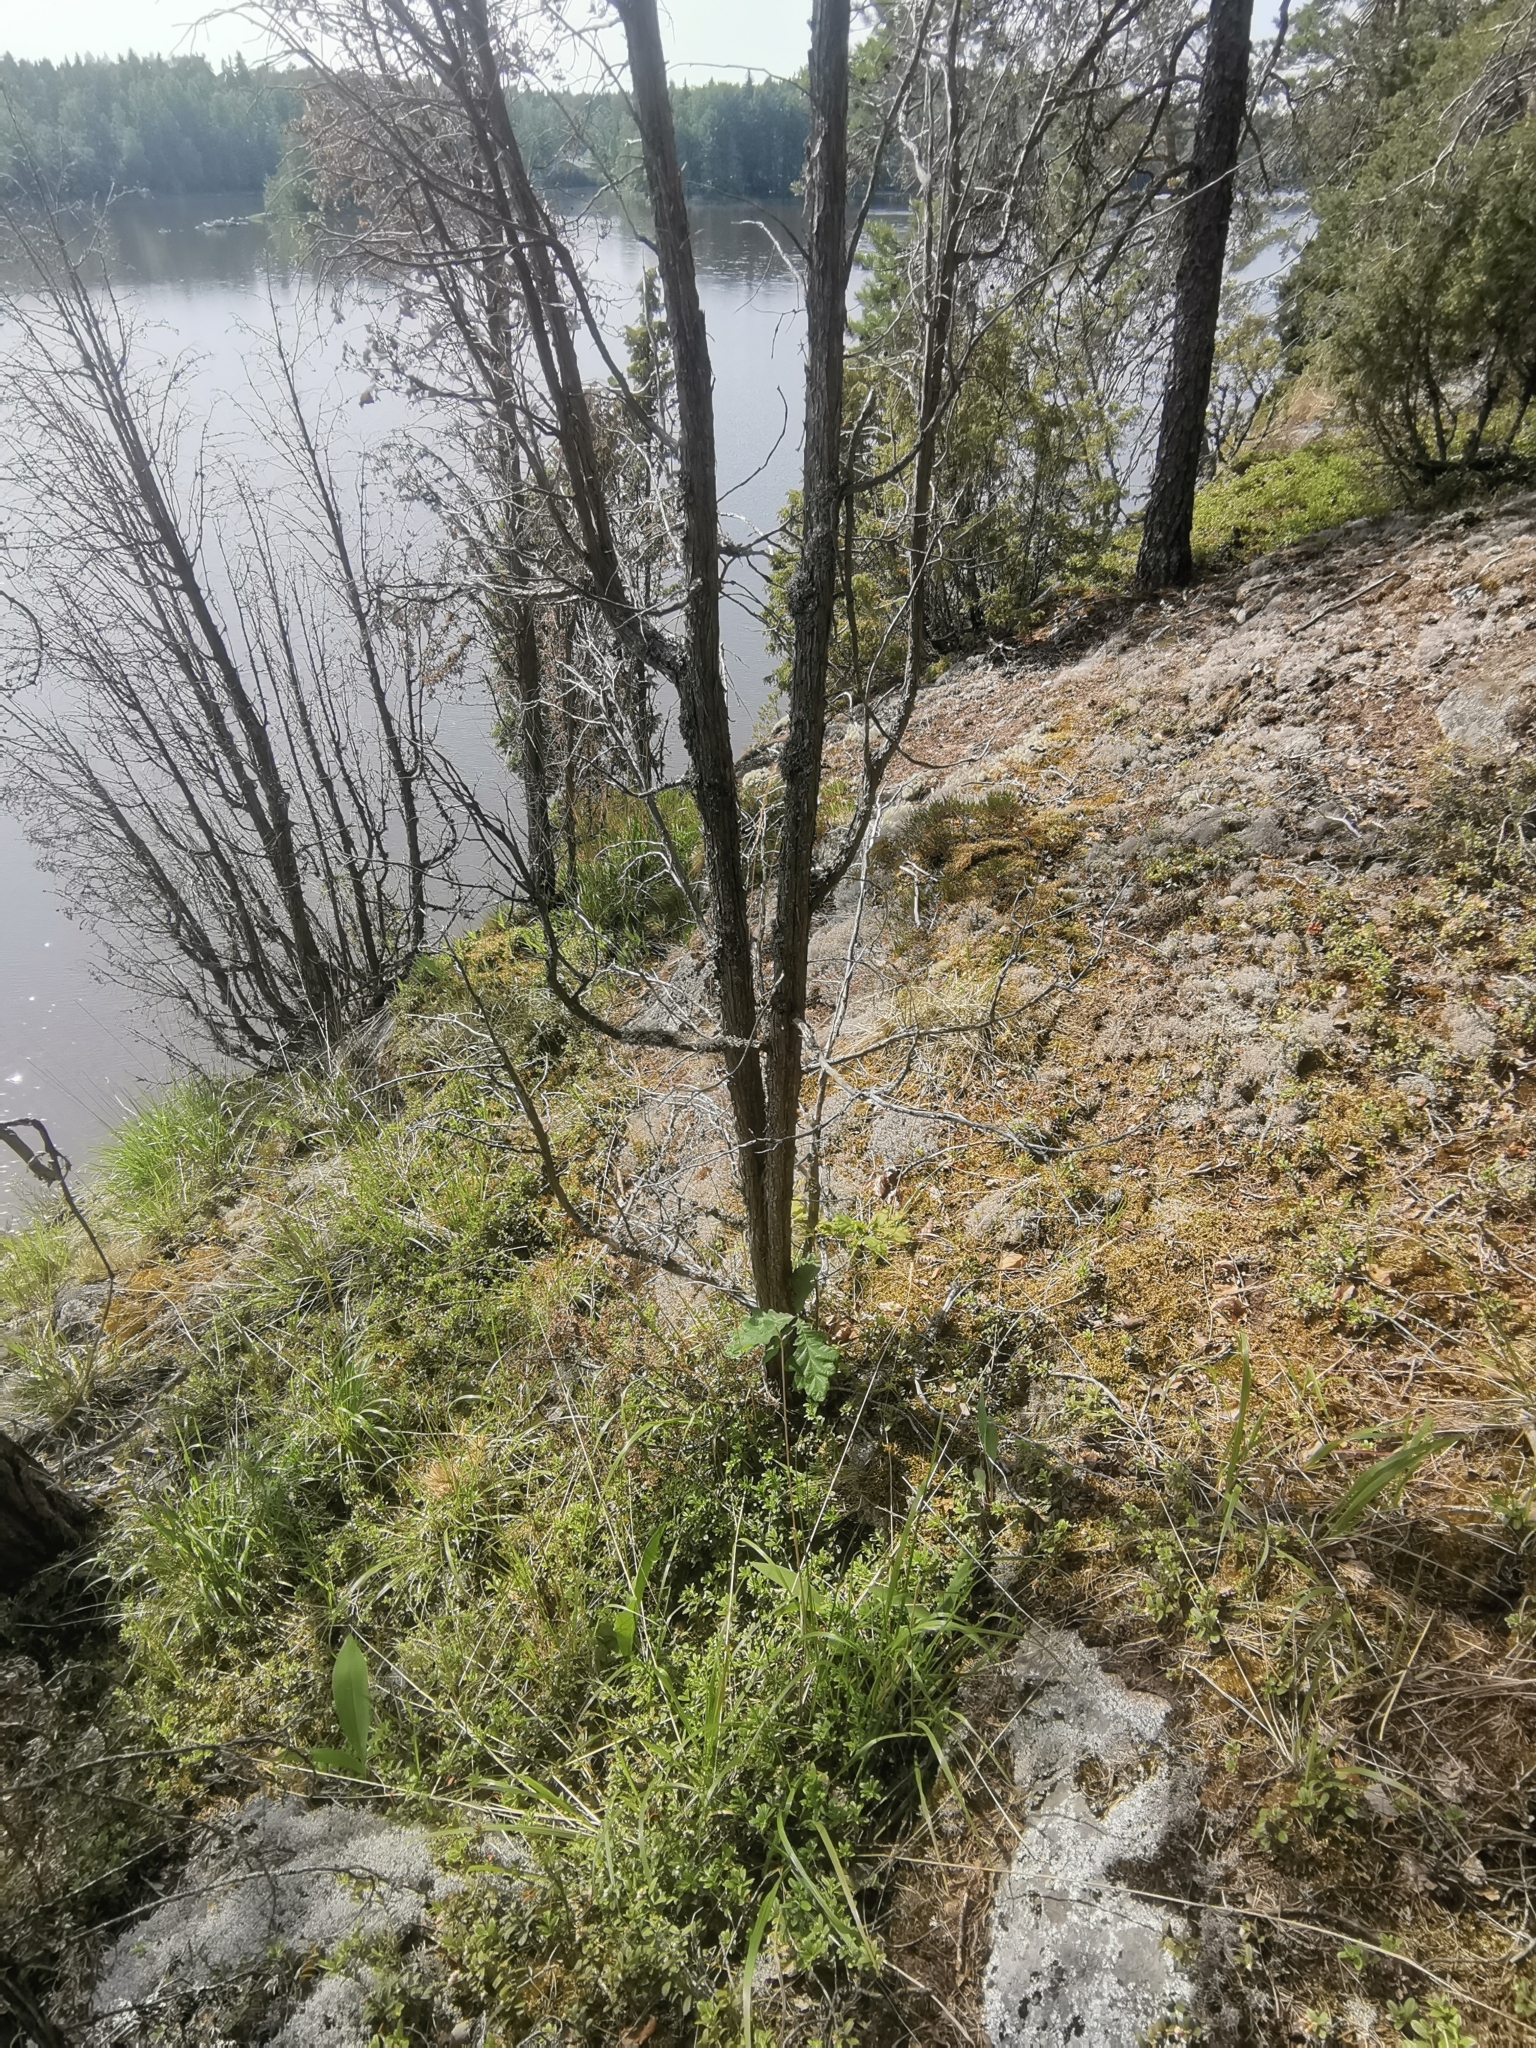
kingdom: Plantae
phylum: Tracheophyta
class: Magnoliopsida
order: Fagales
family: Fagaceae
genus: Quercus
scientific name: Quercus robur
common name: Pedunculate oak
